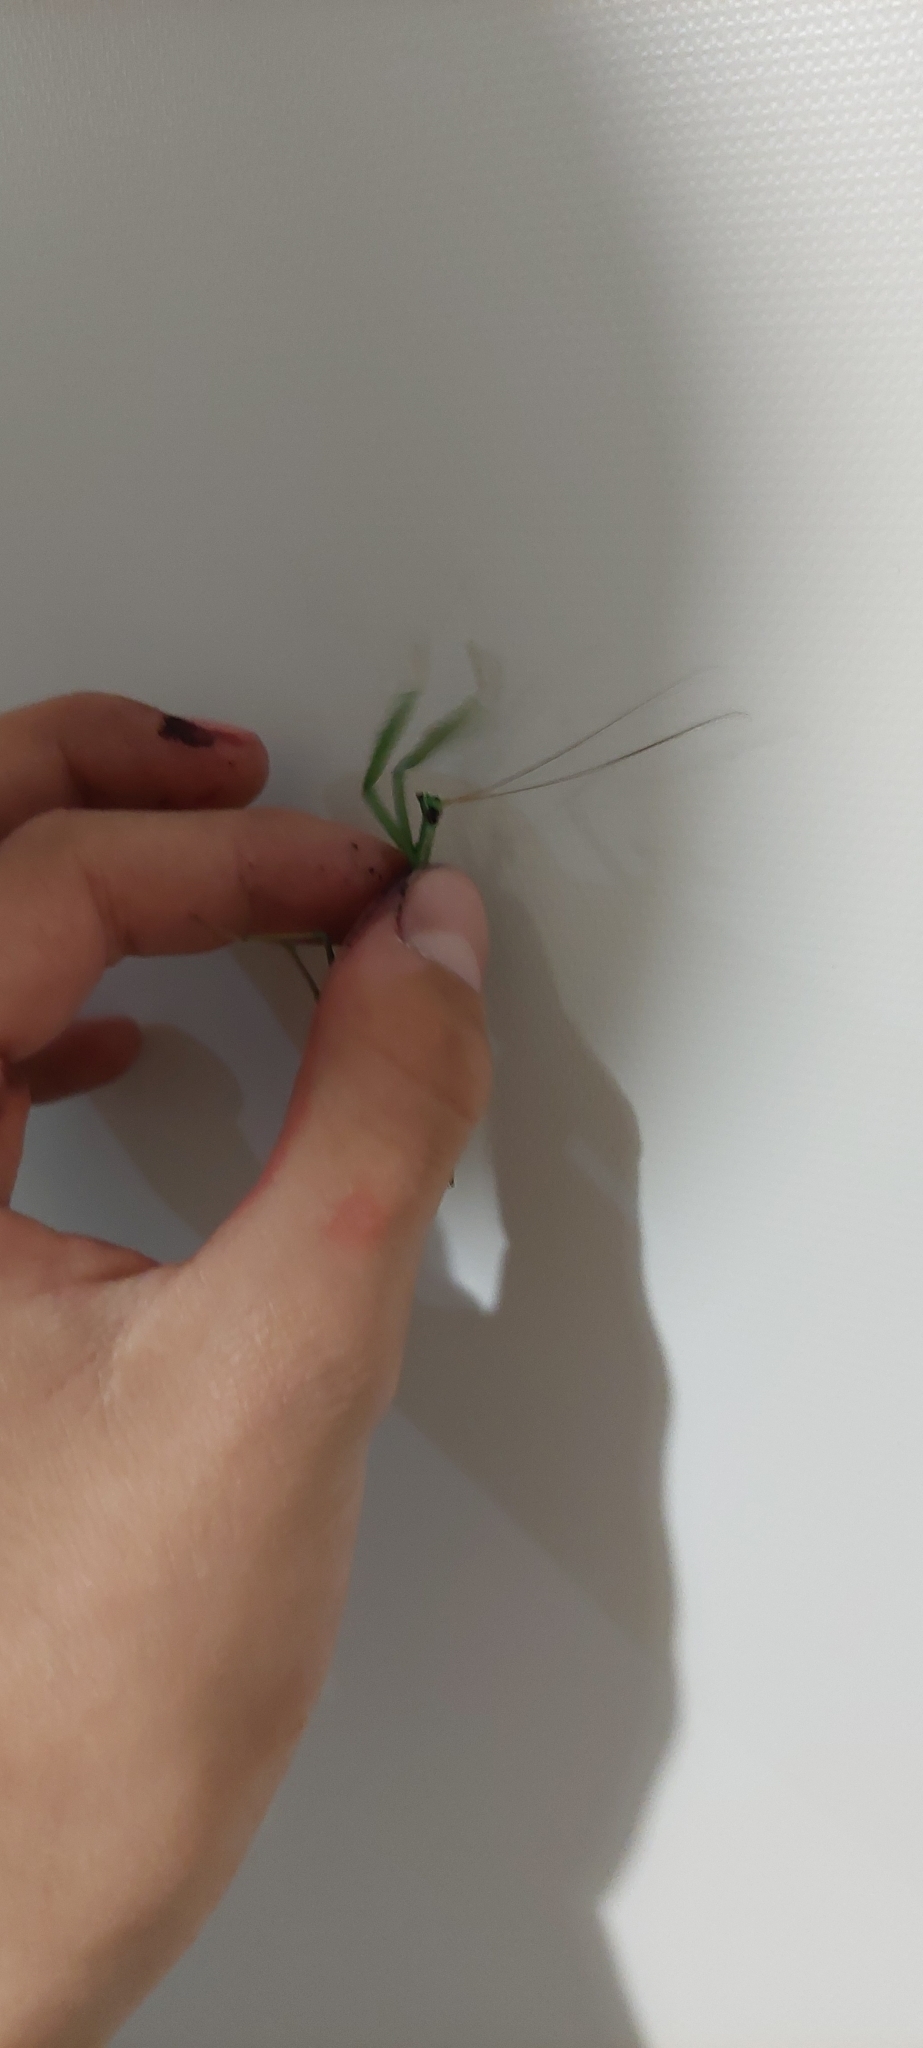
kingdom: Animalia
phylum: Arthropoda
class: Insecta
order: Mantodea
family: Coptopterygidae
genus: Coptopteryx
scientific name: Coptopteryx argentina
